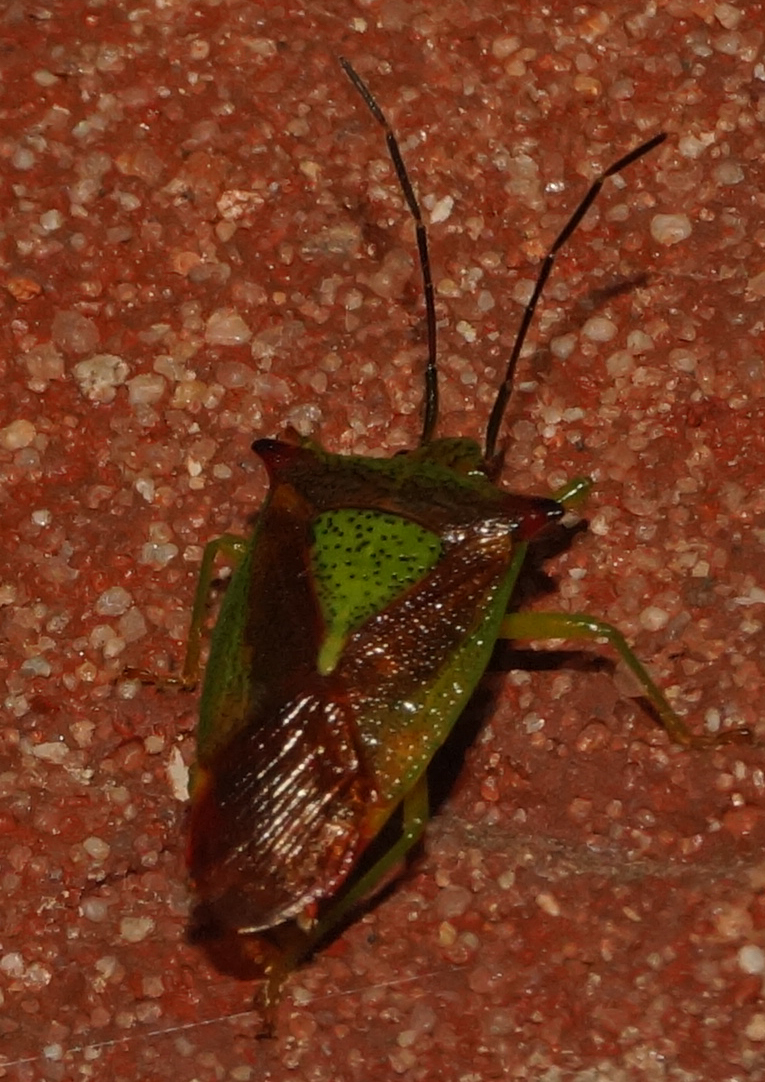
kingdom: Animalia
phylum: Arthropoda
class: Insecta
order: Hemiptera
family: Acanthosomatidae
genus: Acanthosoma
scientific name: Acanthosoma haemorrhoidale
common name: Hawthorn shieldbug
